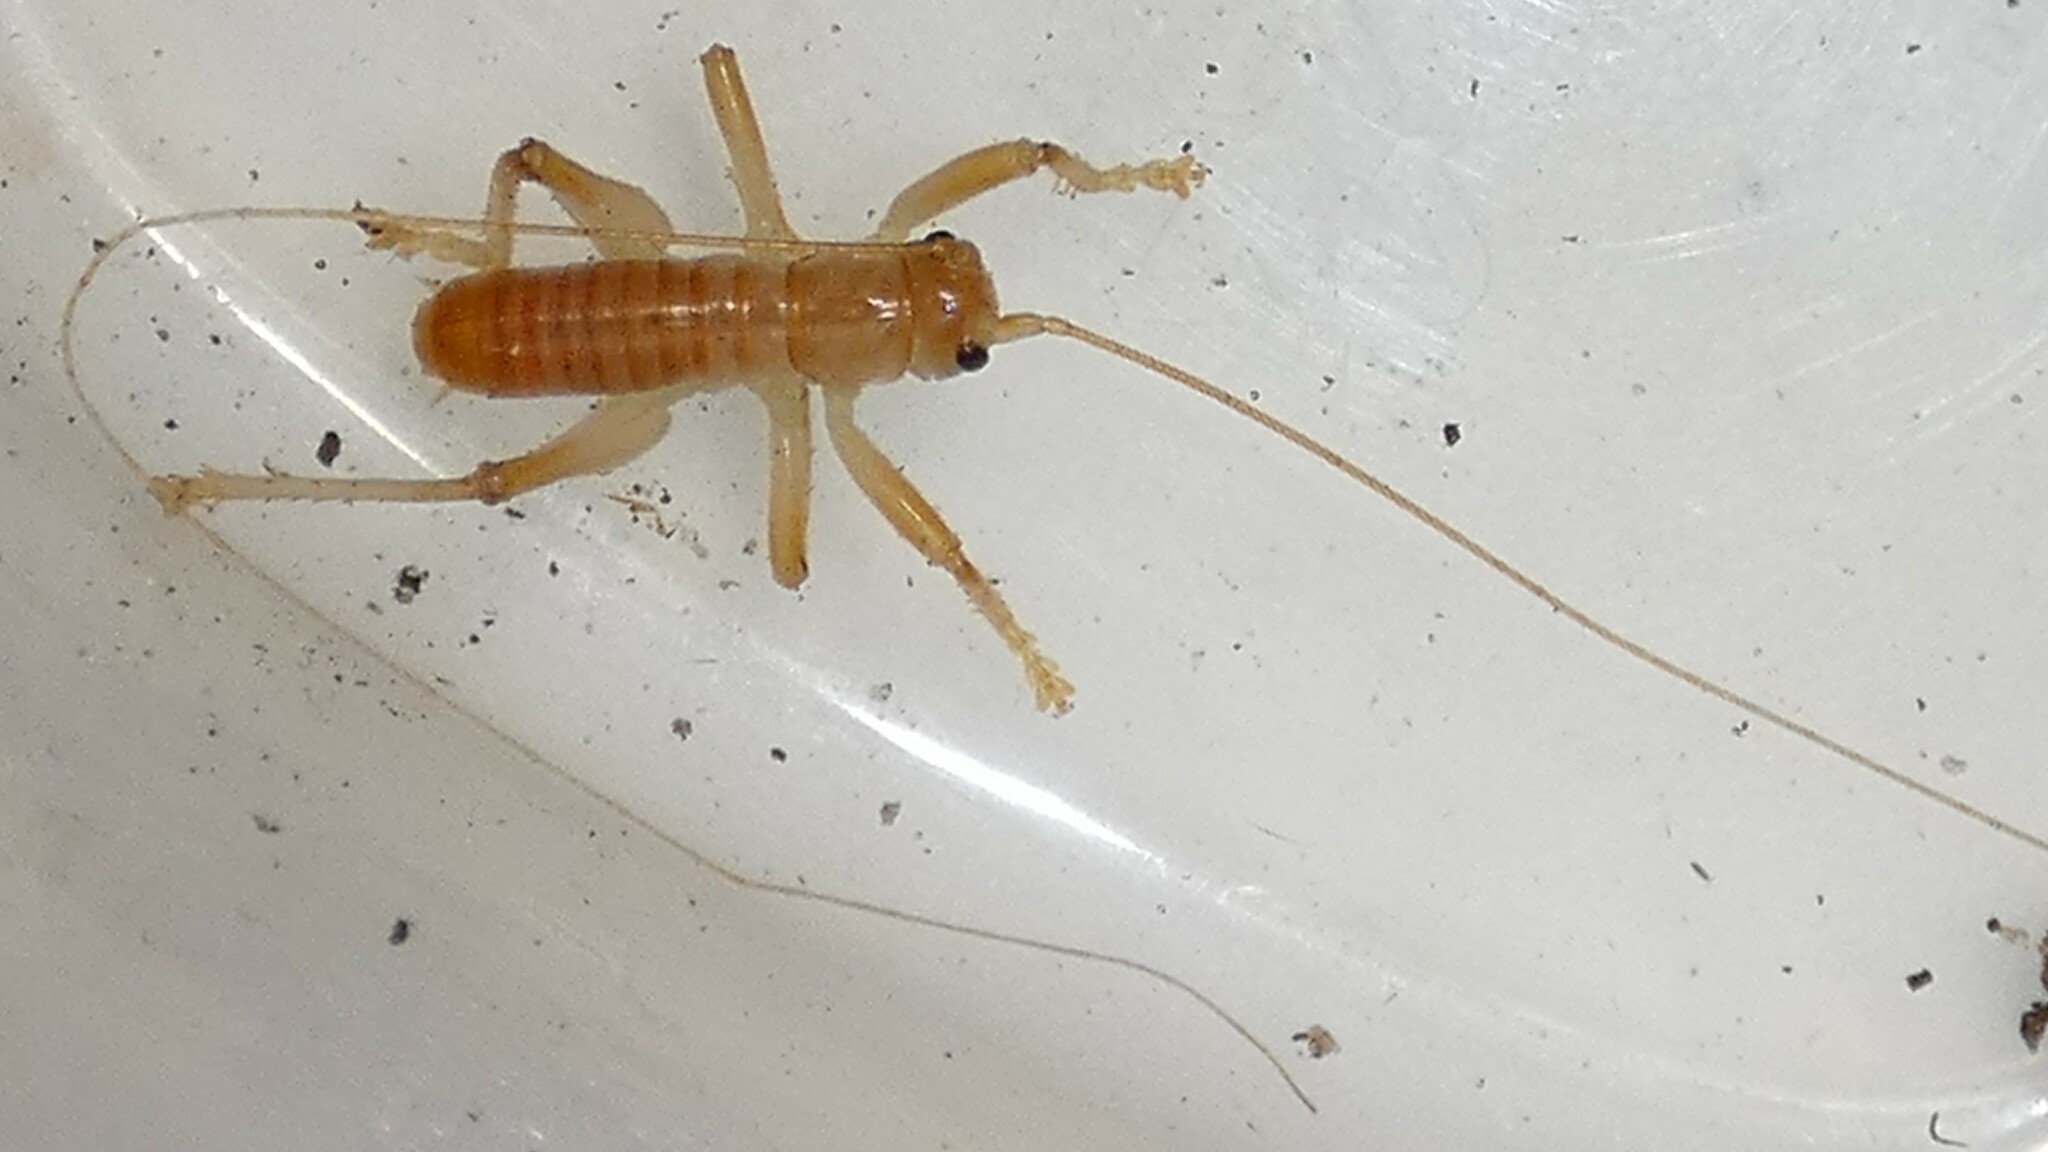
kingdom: Animalia
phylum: Arthropoda
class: Insecta
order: Orthoptera
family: Gryllacrididae
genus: Camptonotus
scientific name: Camptonotus carolinensis
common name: Carolina leaf-roller
